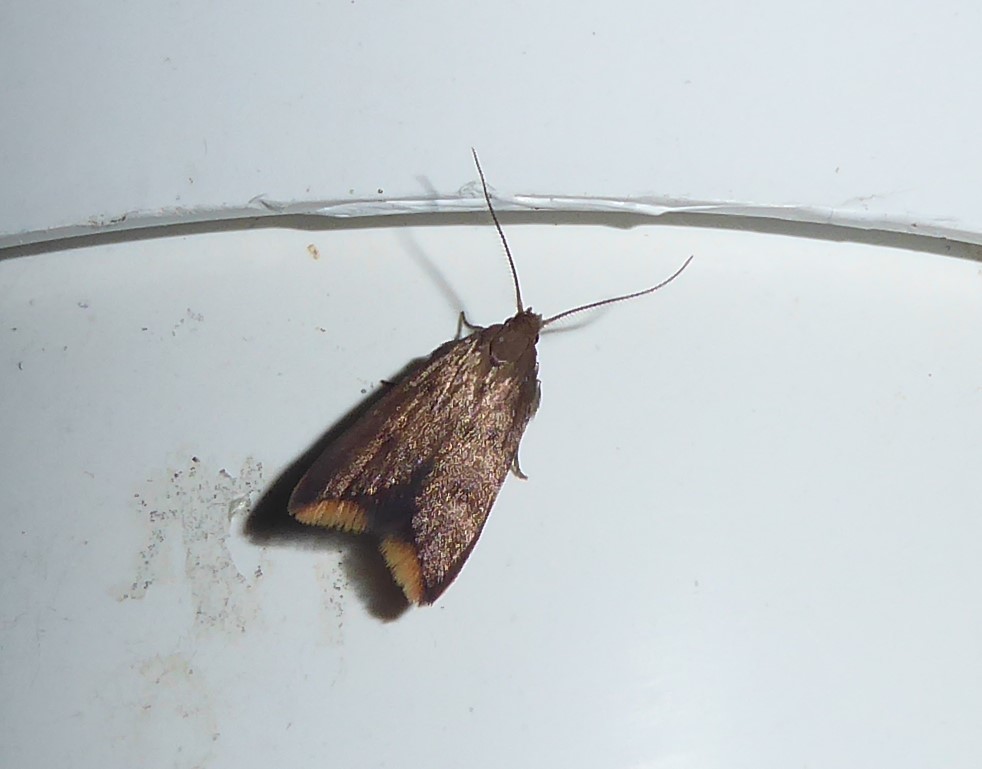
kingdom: Animalia
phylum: Arthropoda
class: Insecta
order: Lepidoptera
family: Oecophoridae
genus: Tachystola
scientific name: Tachystola acroxantha
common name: Ruddy streak
